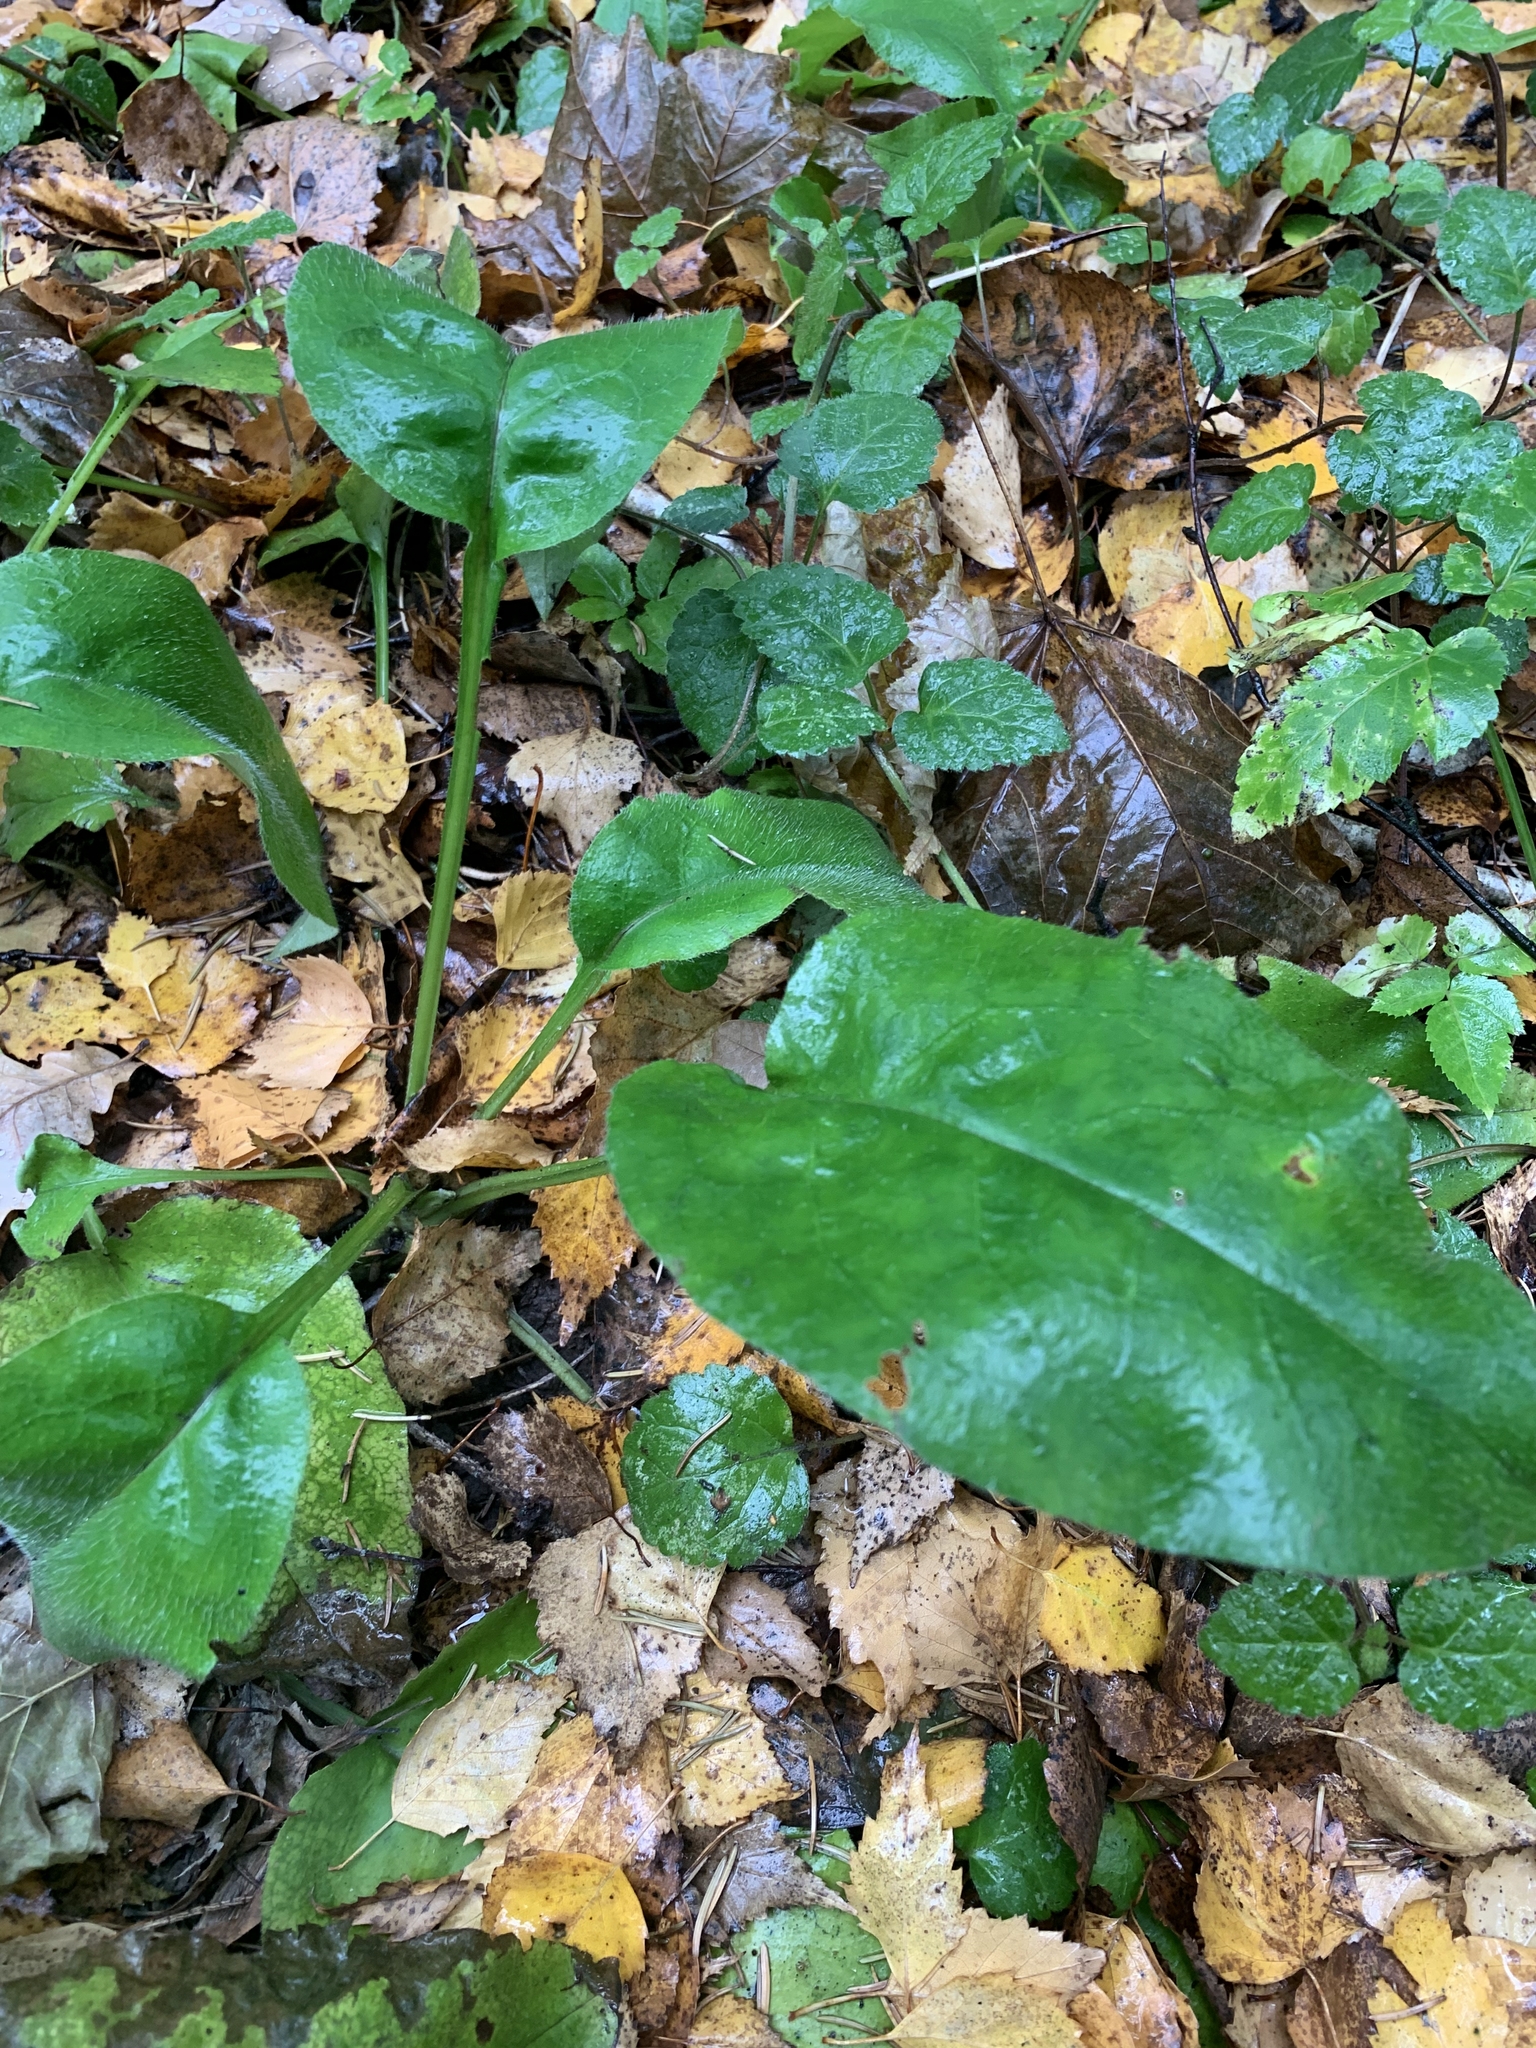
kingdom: Plantae
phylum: Tracheophyta
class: Magnoliopsida
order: Boraginales
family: Boraginaceae
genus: Pulmonaria
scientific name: Pulmonaria obscura
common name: Suffolk lungwort
